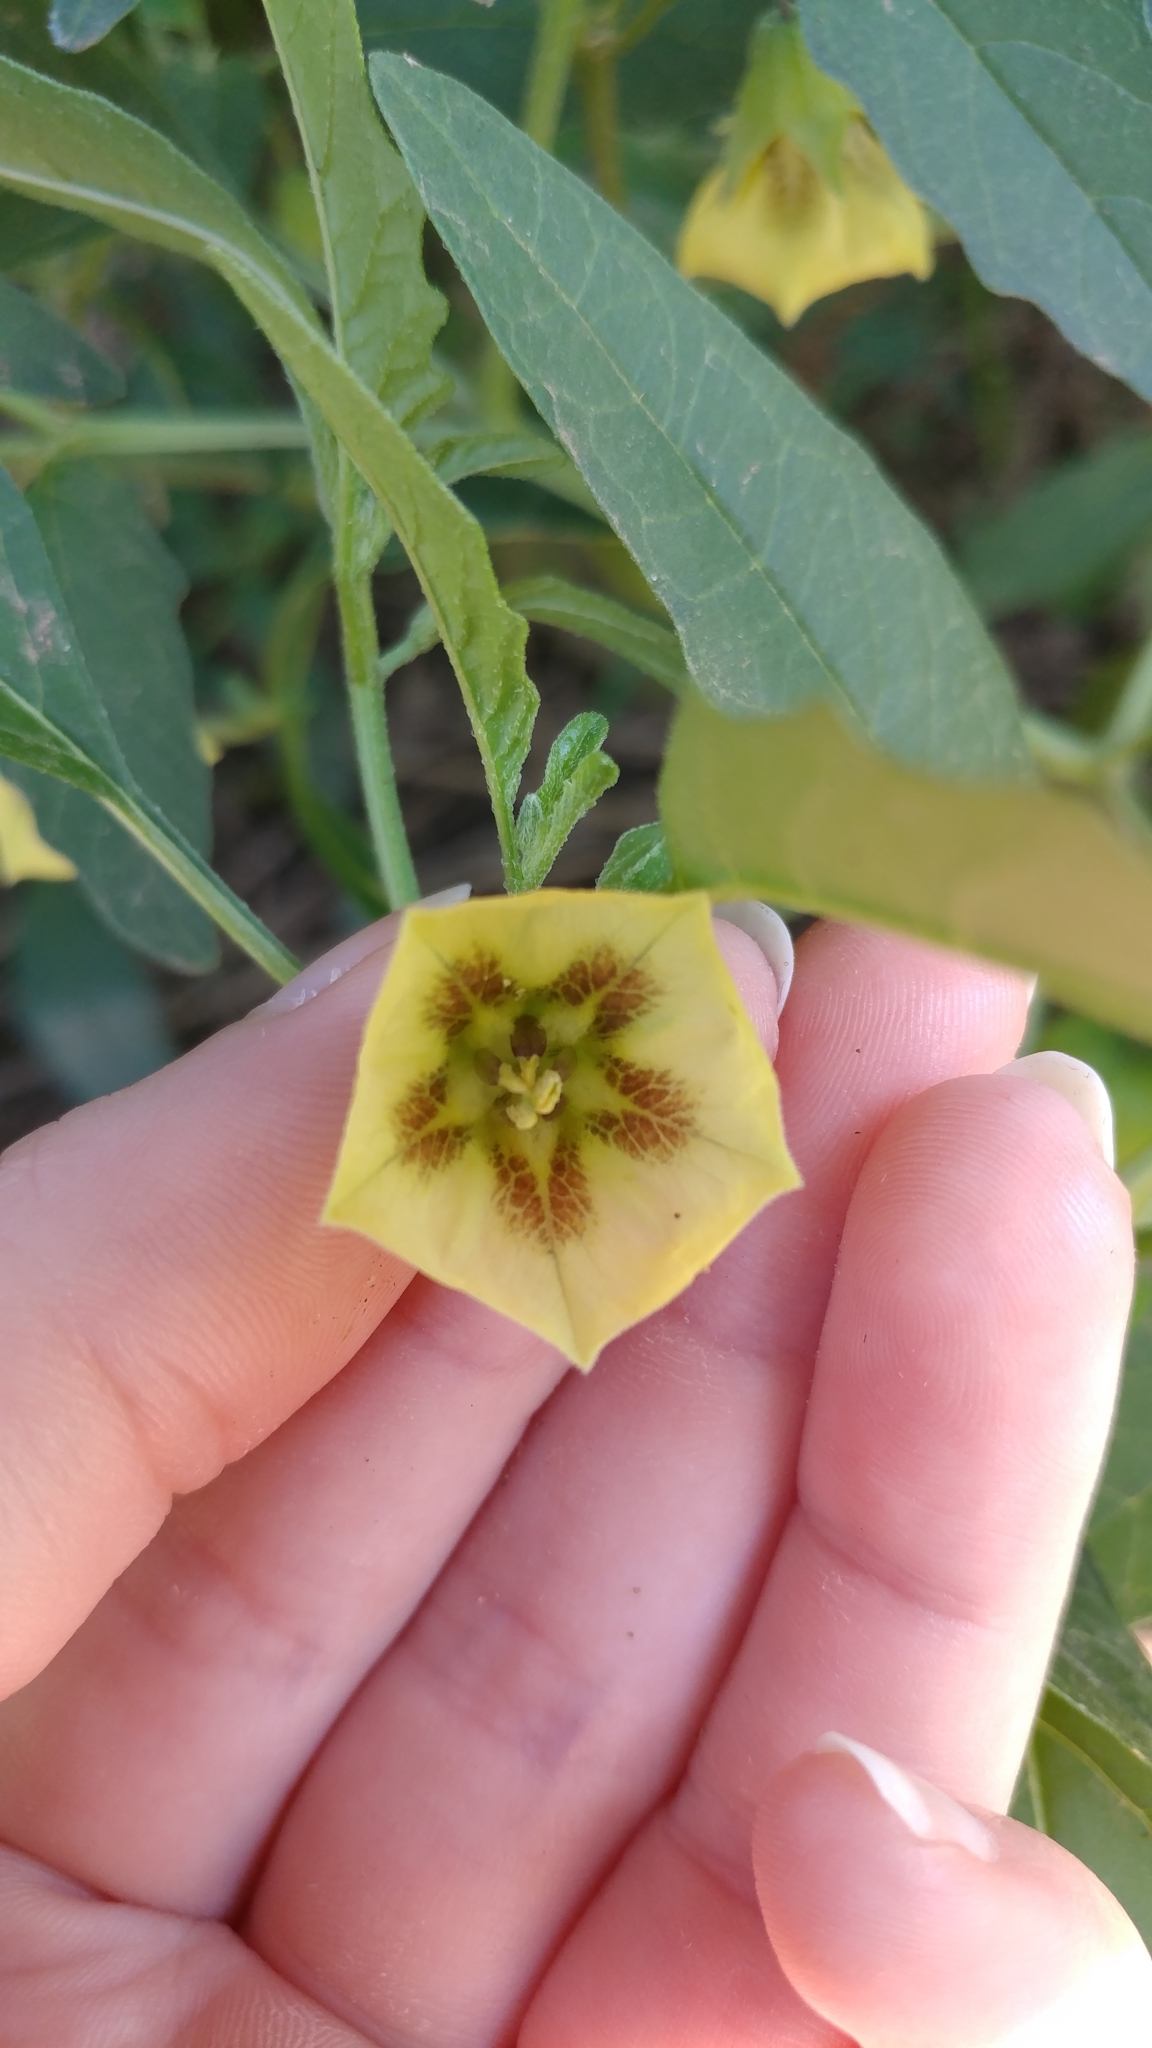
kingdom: Plantae
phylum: Tracheophyta
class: Magnoliopsida
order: Solanales
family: Solanaceae
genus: Physalis
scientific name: Physalis longifolia
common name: Common ground-cherry
